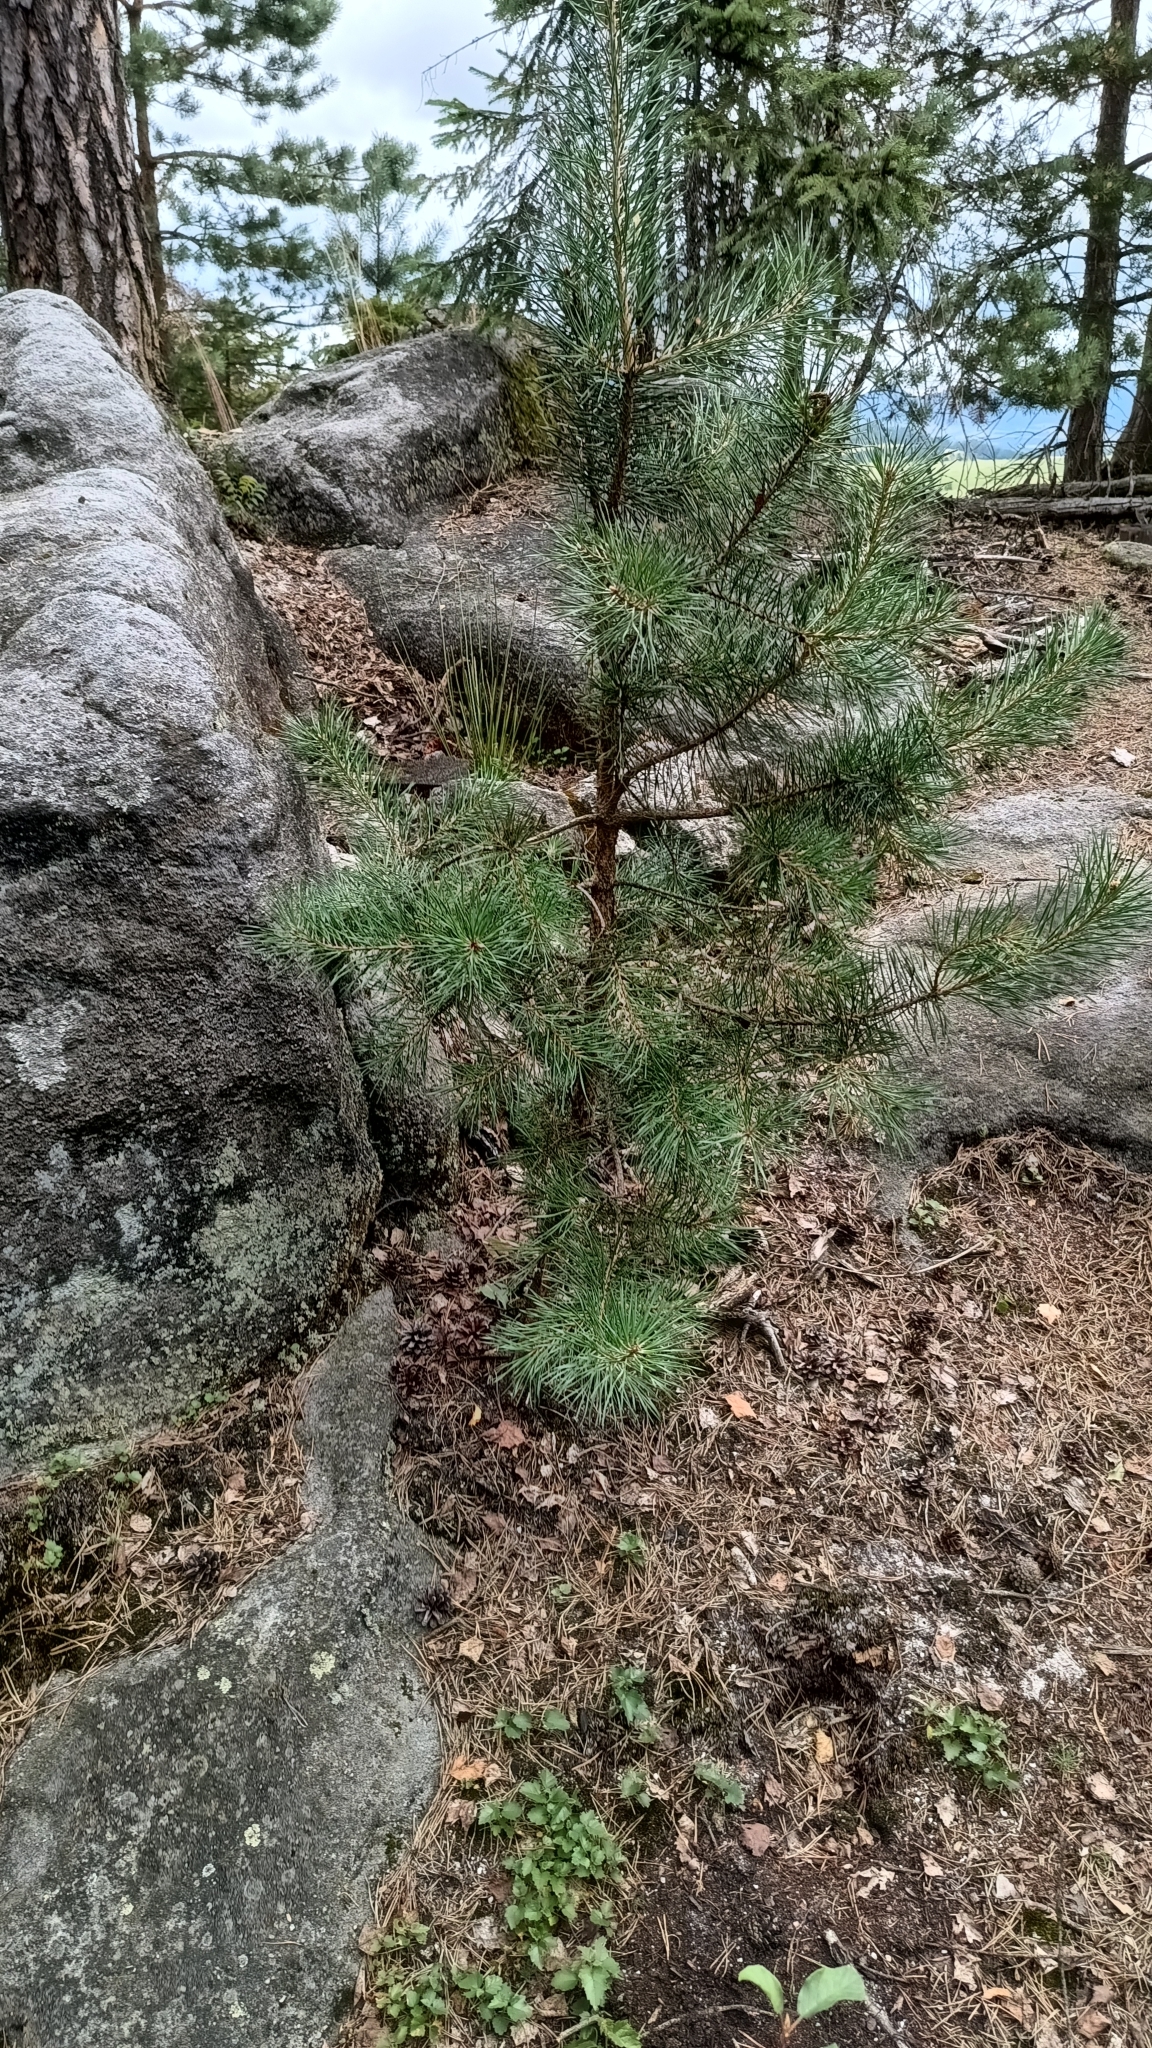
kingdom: Plantae
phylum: Tracheophyta
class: Pinopsida
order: Pinales
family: Pinaceae
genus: Pinus
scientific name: Pinus sylvestris
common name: Scots pine
